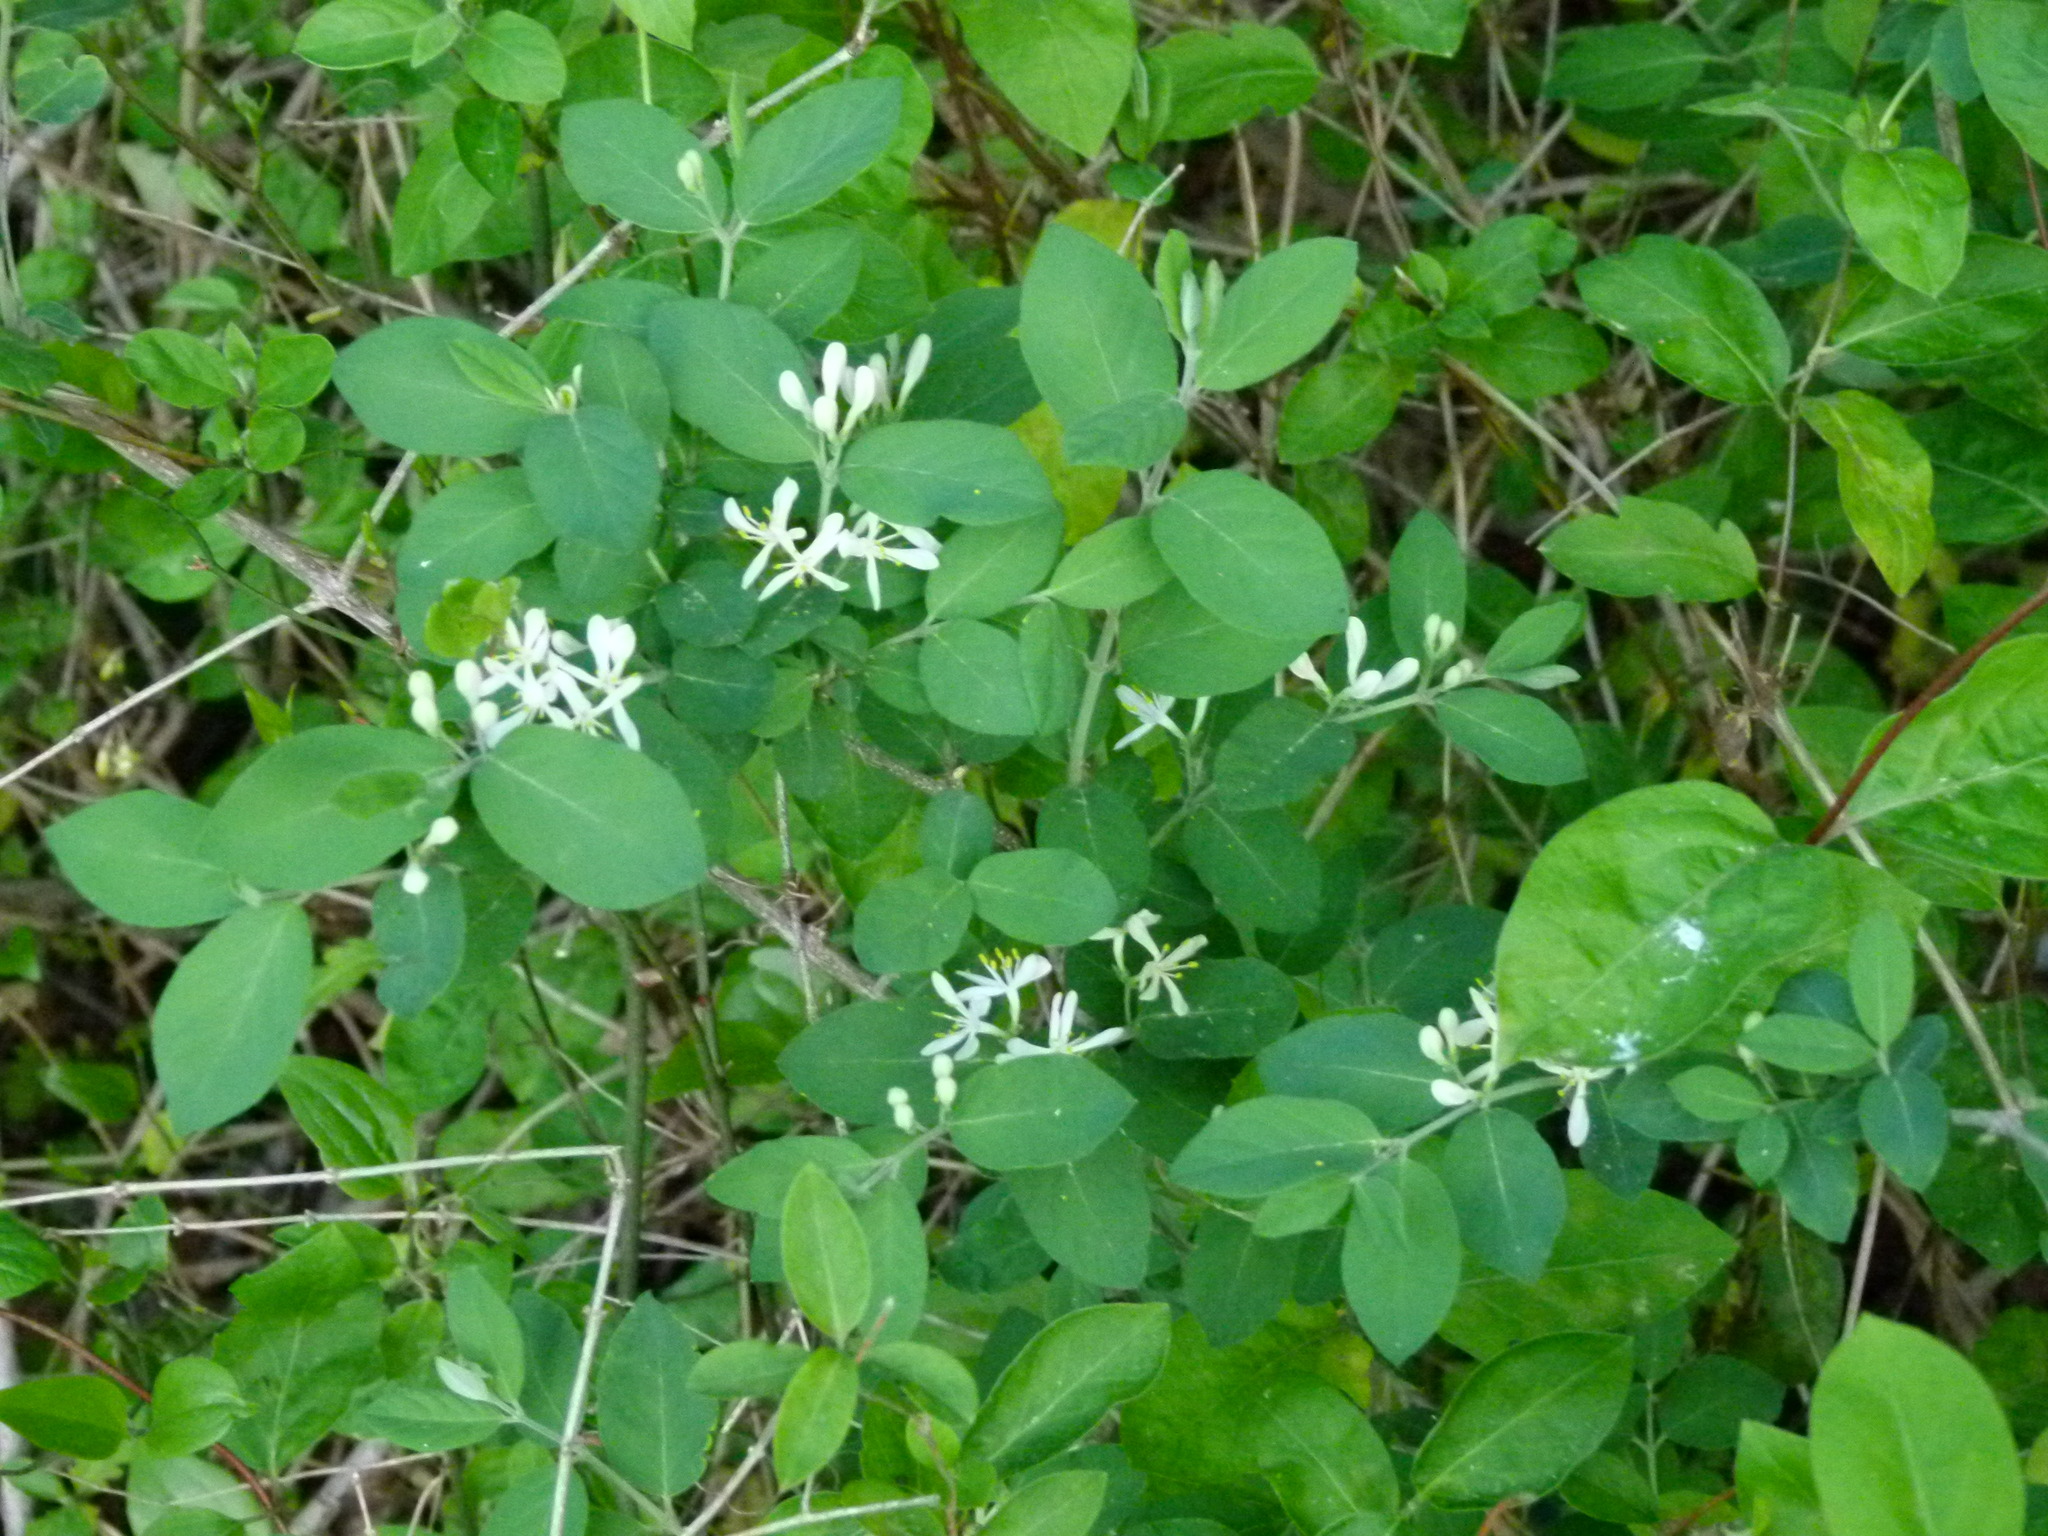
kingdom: Plantae
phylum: Tracheophyta
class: Magnoliopsida
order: Dipsacales
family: Caprifoliaceae
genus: Lonicera
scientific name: Lonicera morrowii
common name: Morrow's honeysuckle
